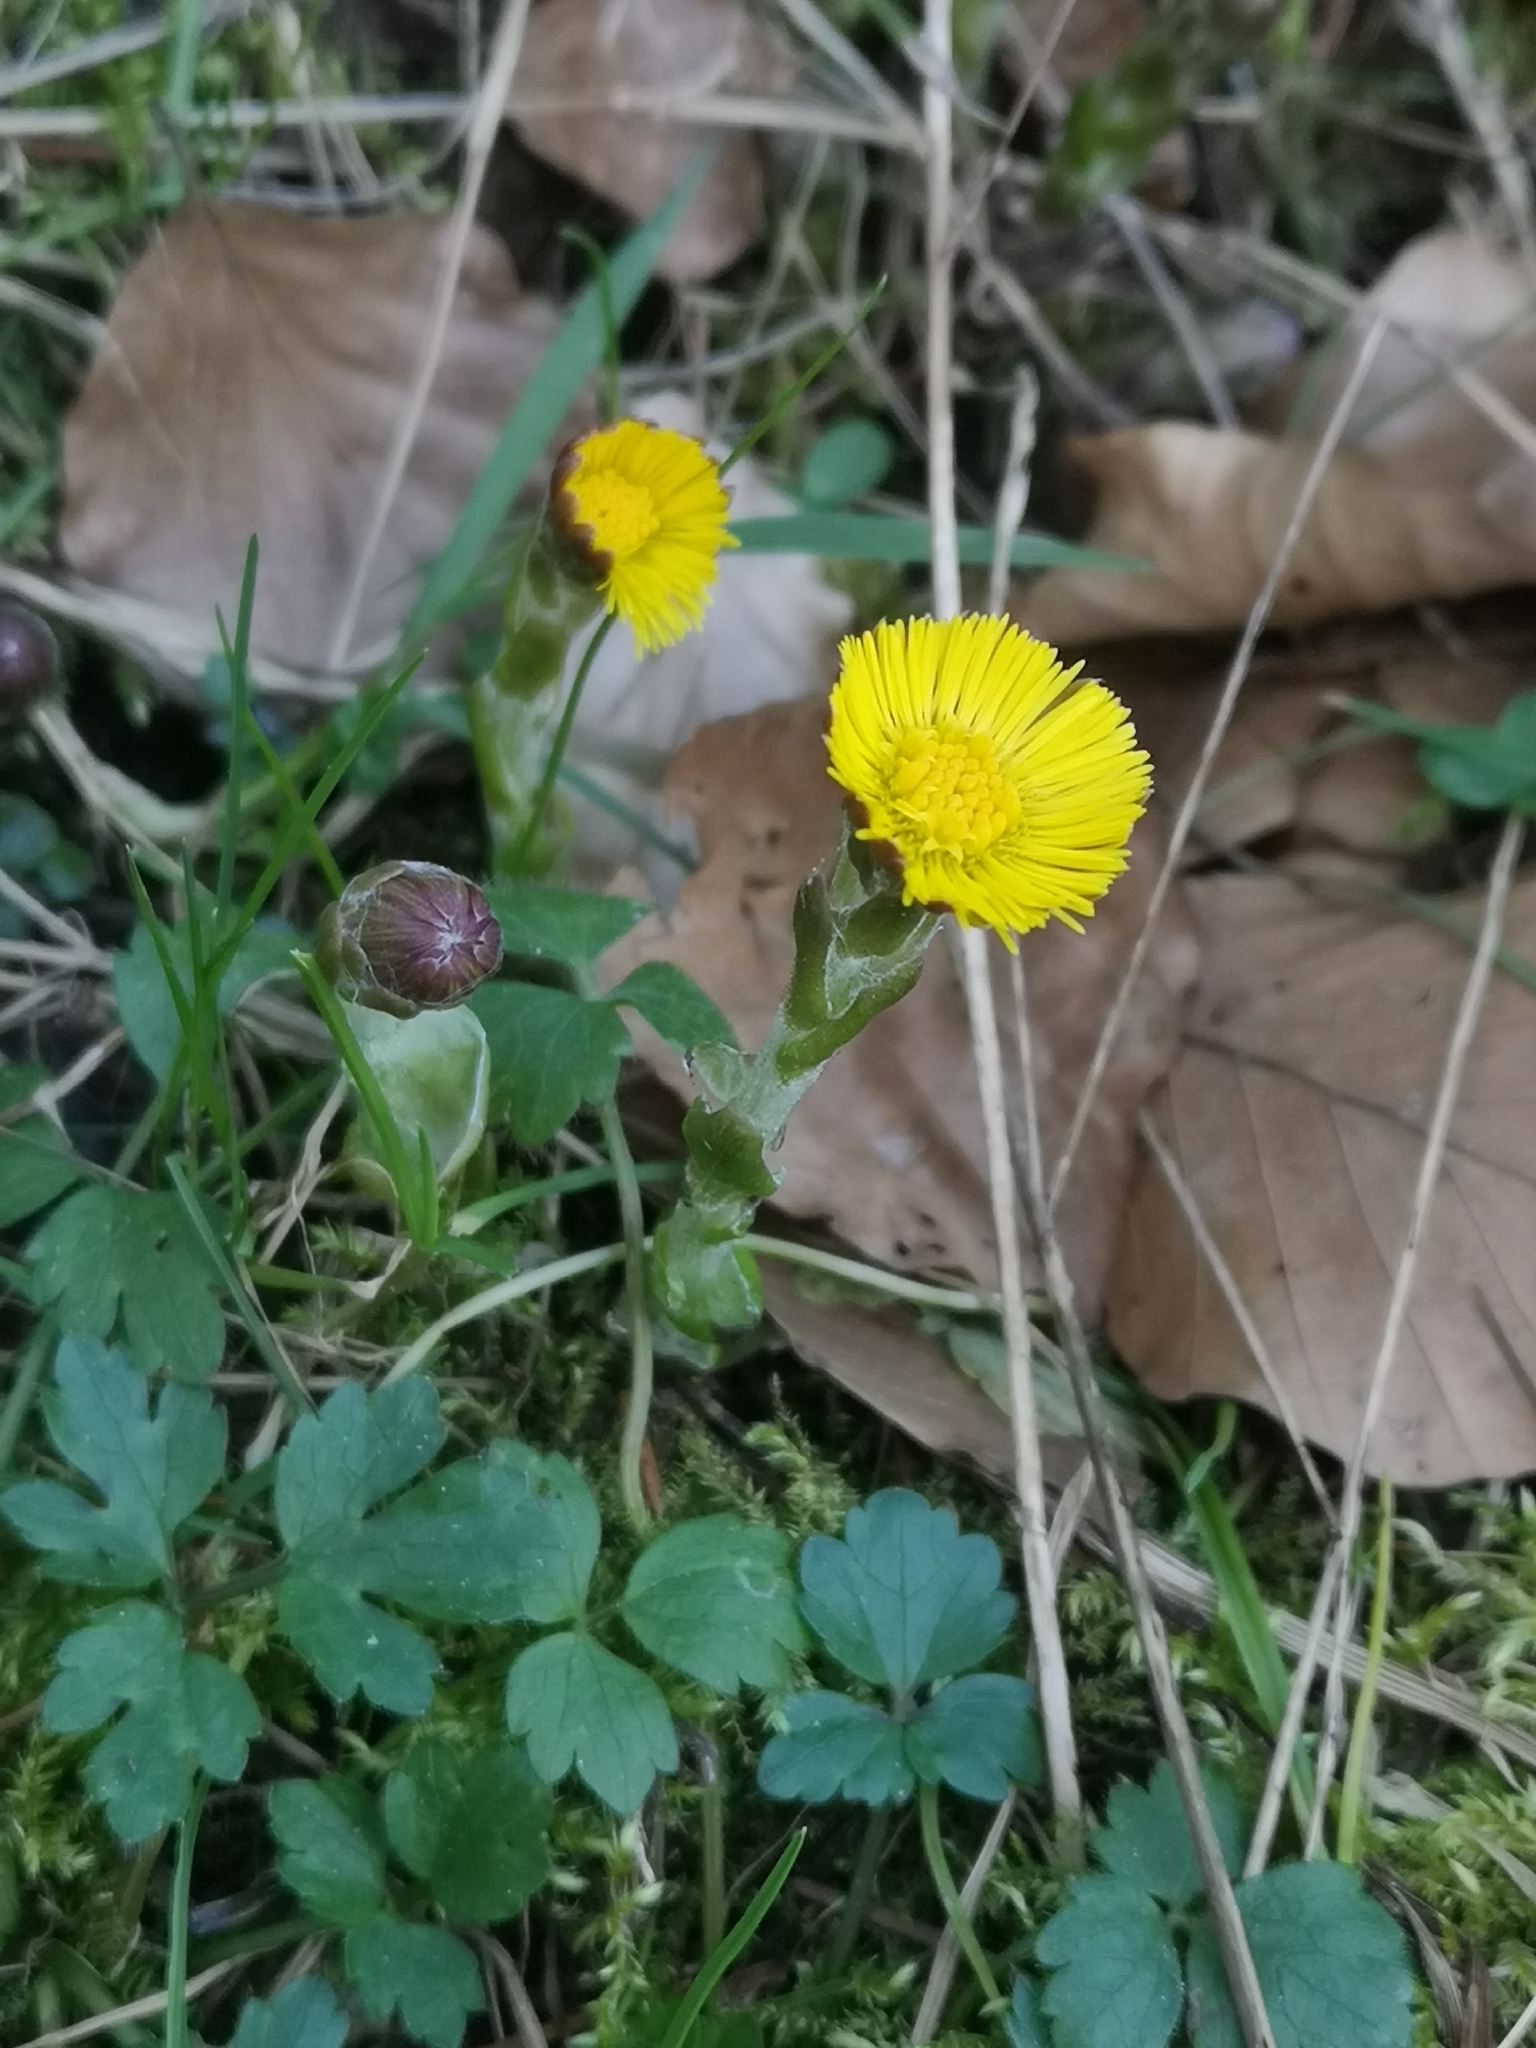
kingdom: Plantae
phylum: Tracheophyta
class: Magnoliopsida
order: Asterales
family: Asteraceae
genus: Tussilago
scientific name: Tussilago farfara
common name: Coltsfoot
